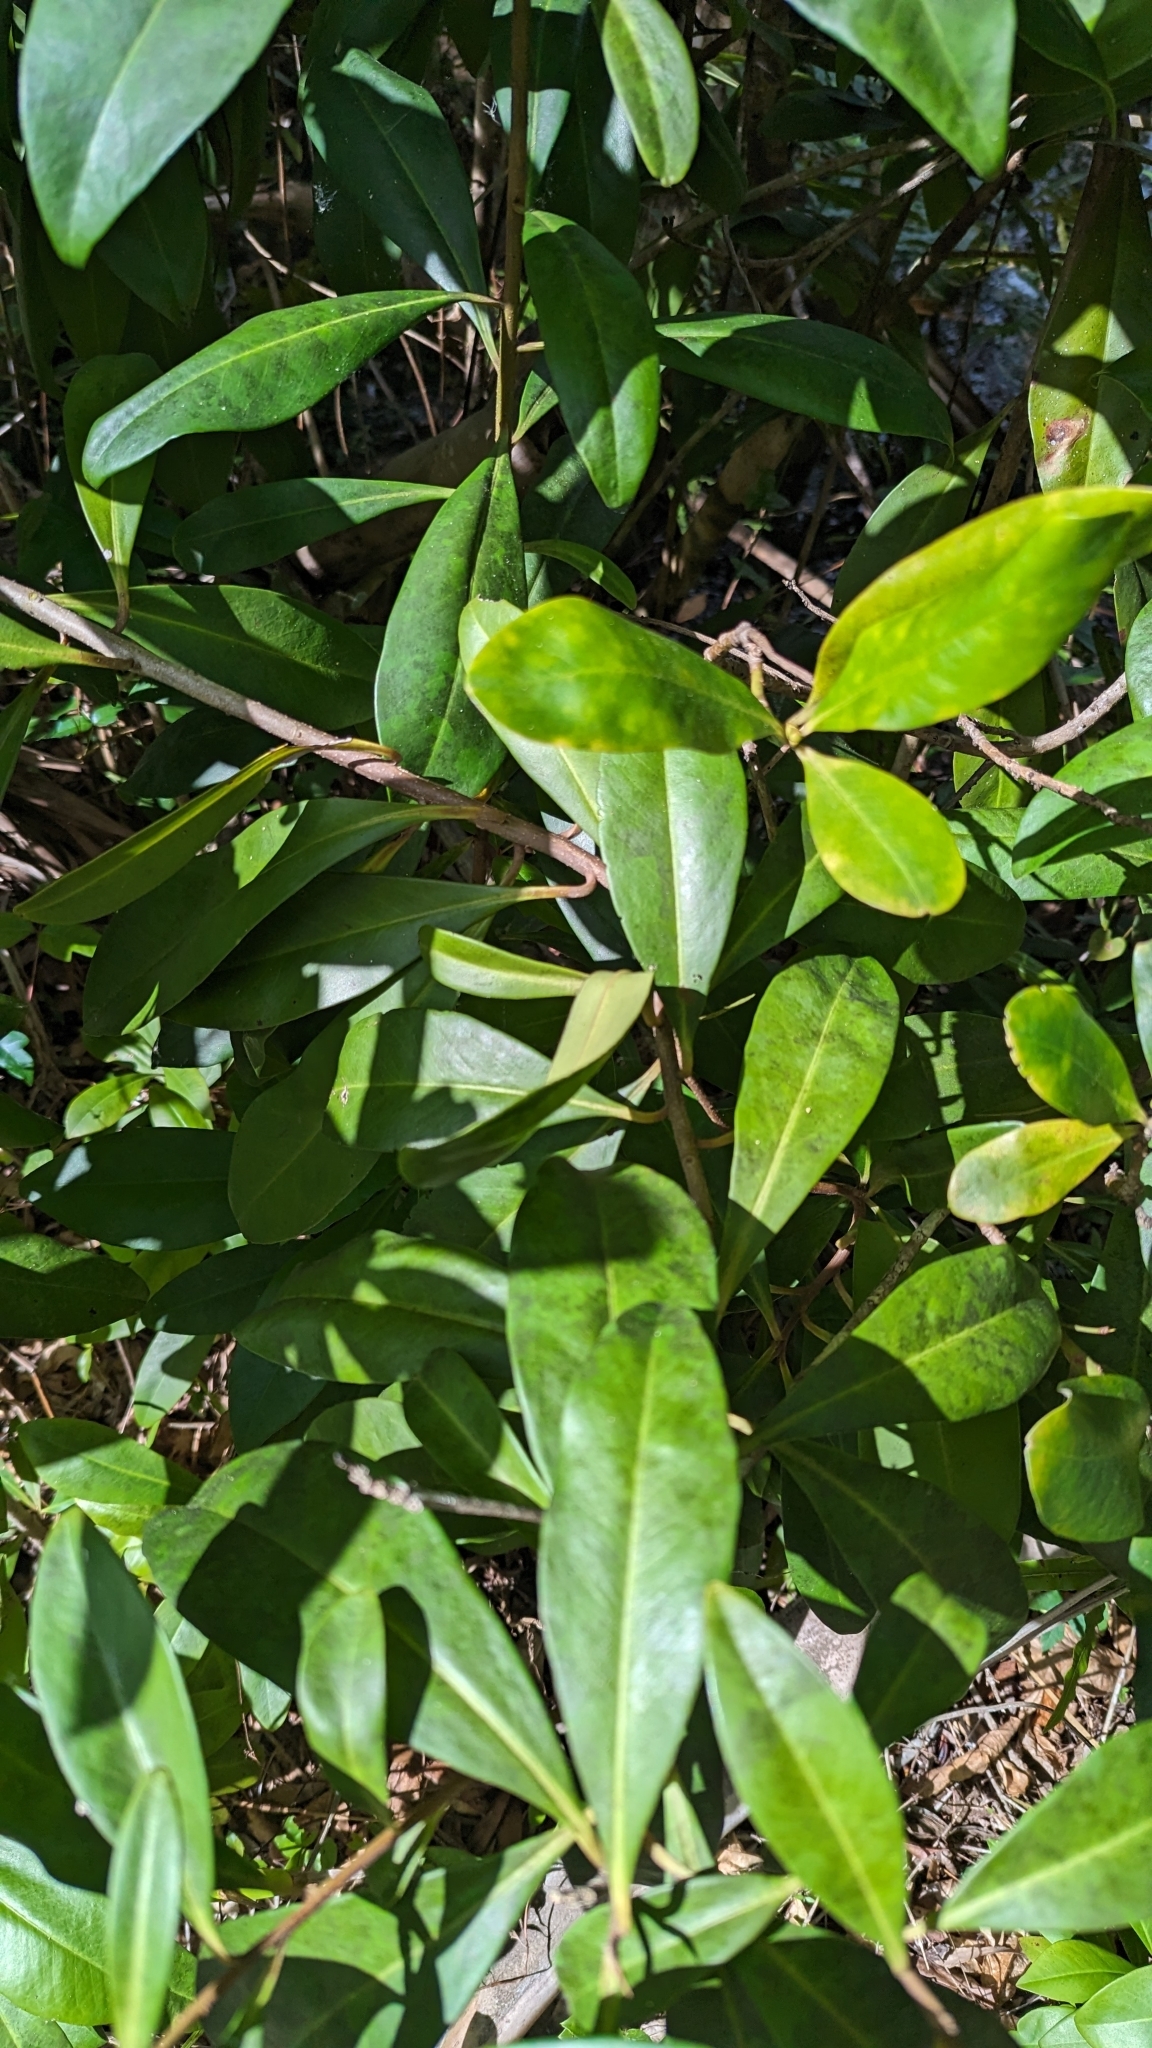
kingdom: Plantae
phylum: Tracheophyta
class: Magnoliopsida
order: Ericales
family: Primulaceae
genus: Ardisia
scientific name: Ardisia escallonioides
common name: Island marlberry
